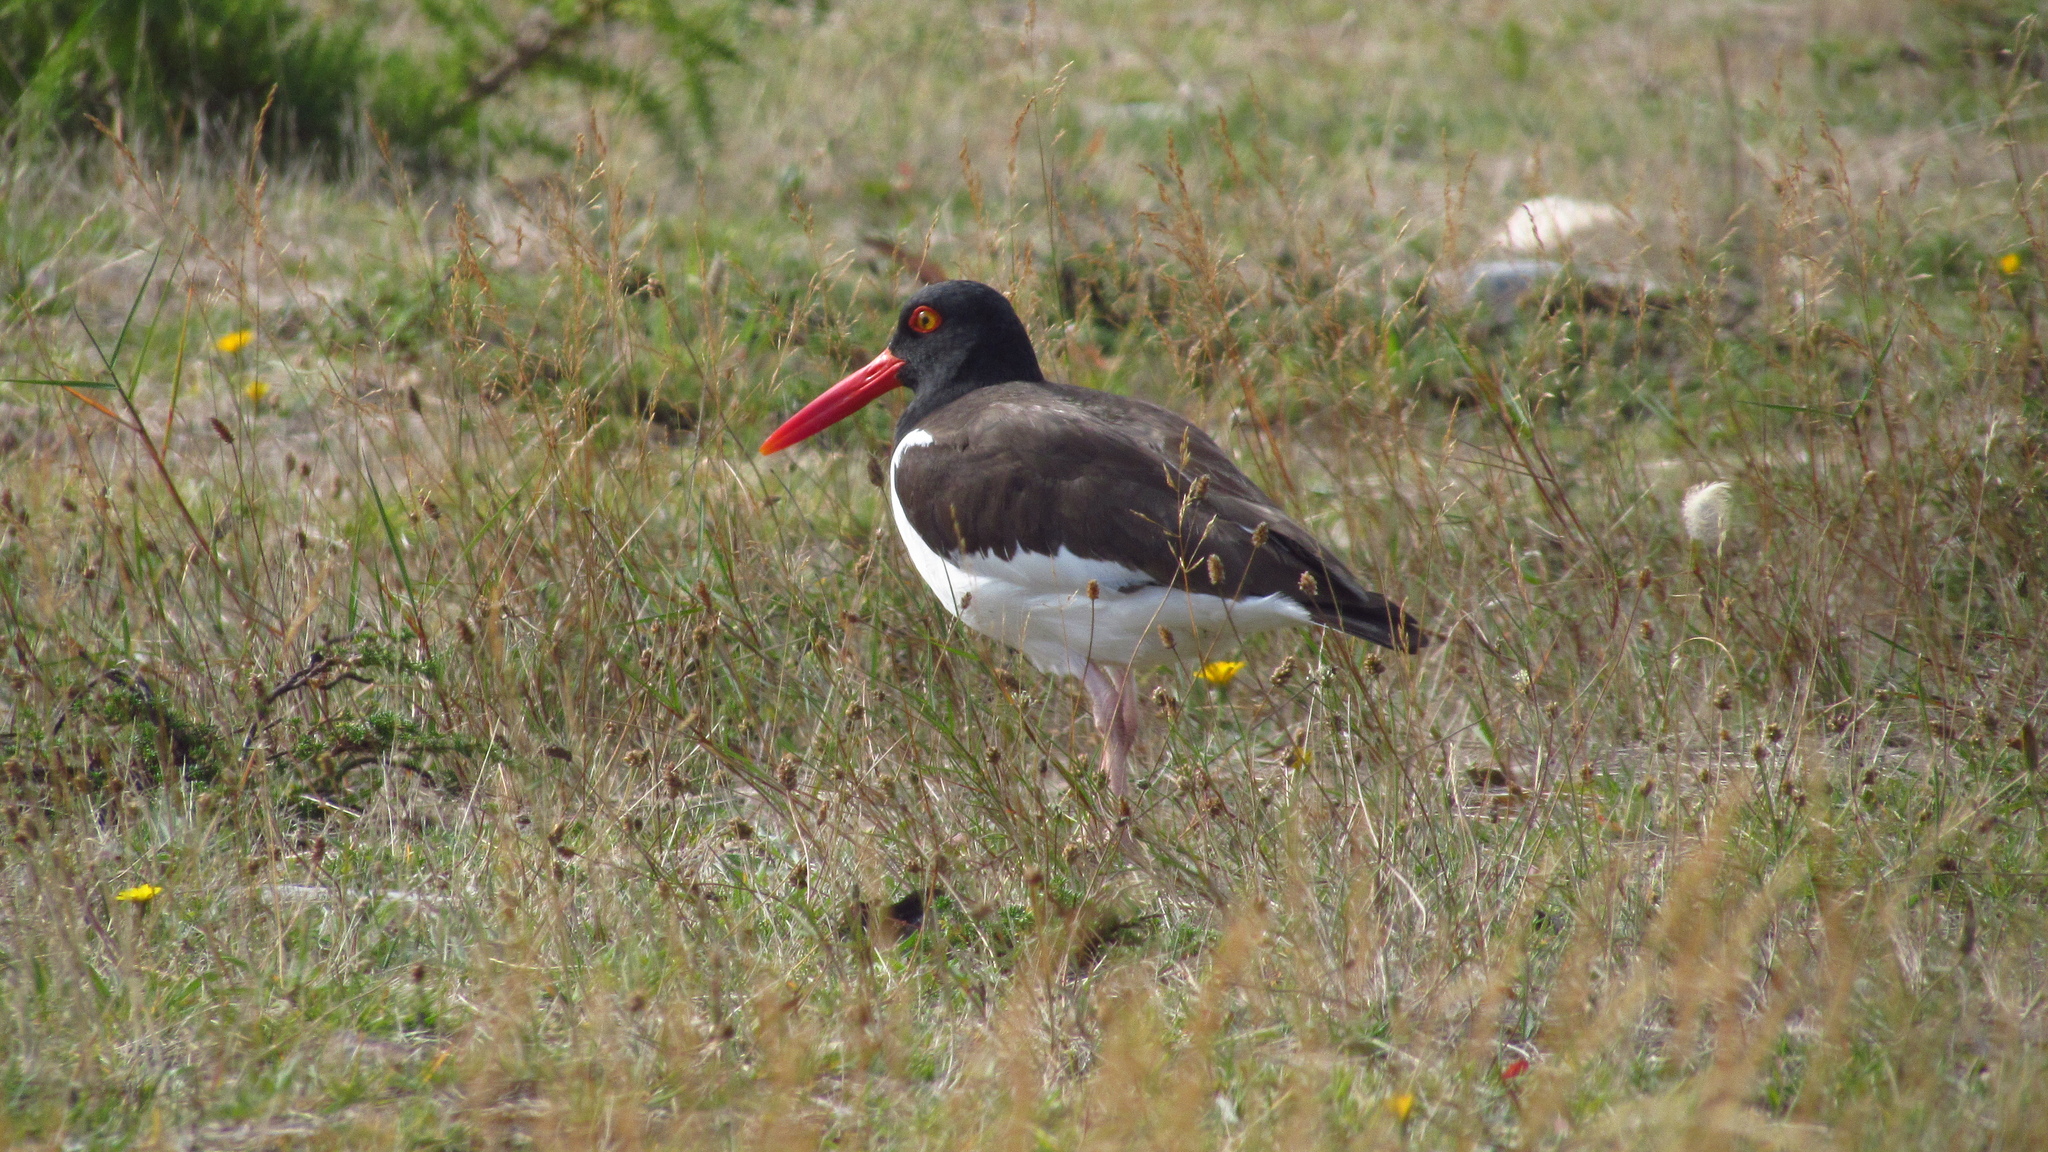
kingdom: Animalia
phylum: Chordata
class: Aves
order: Charadriiformes
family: Haematopodidae
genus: Haematopus
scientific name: Haematopus palliatus
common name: American oystercatcher
